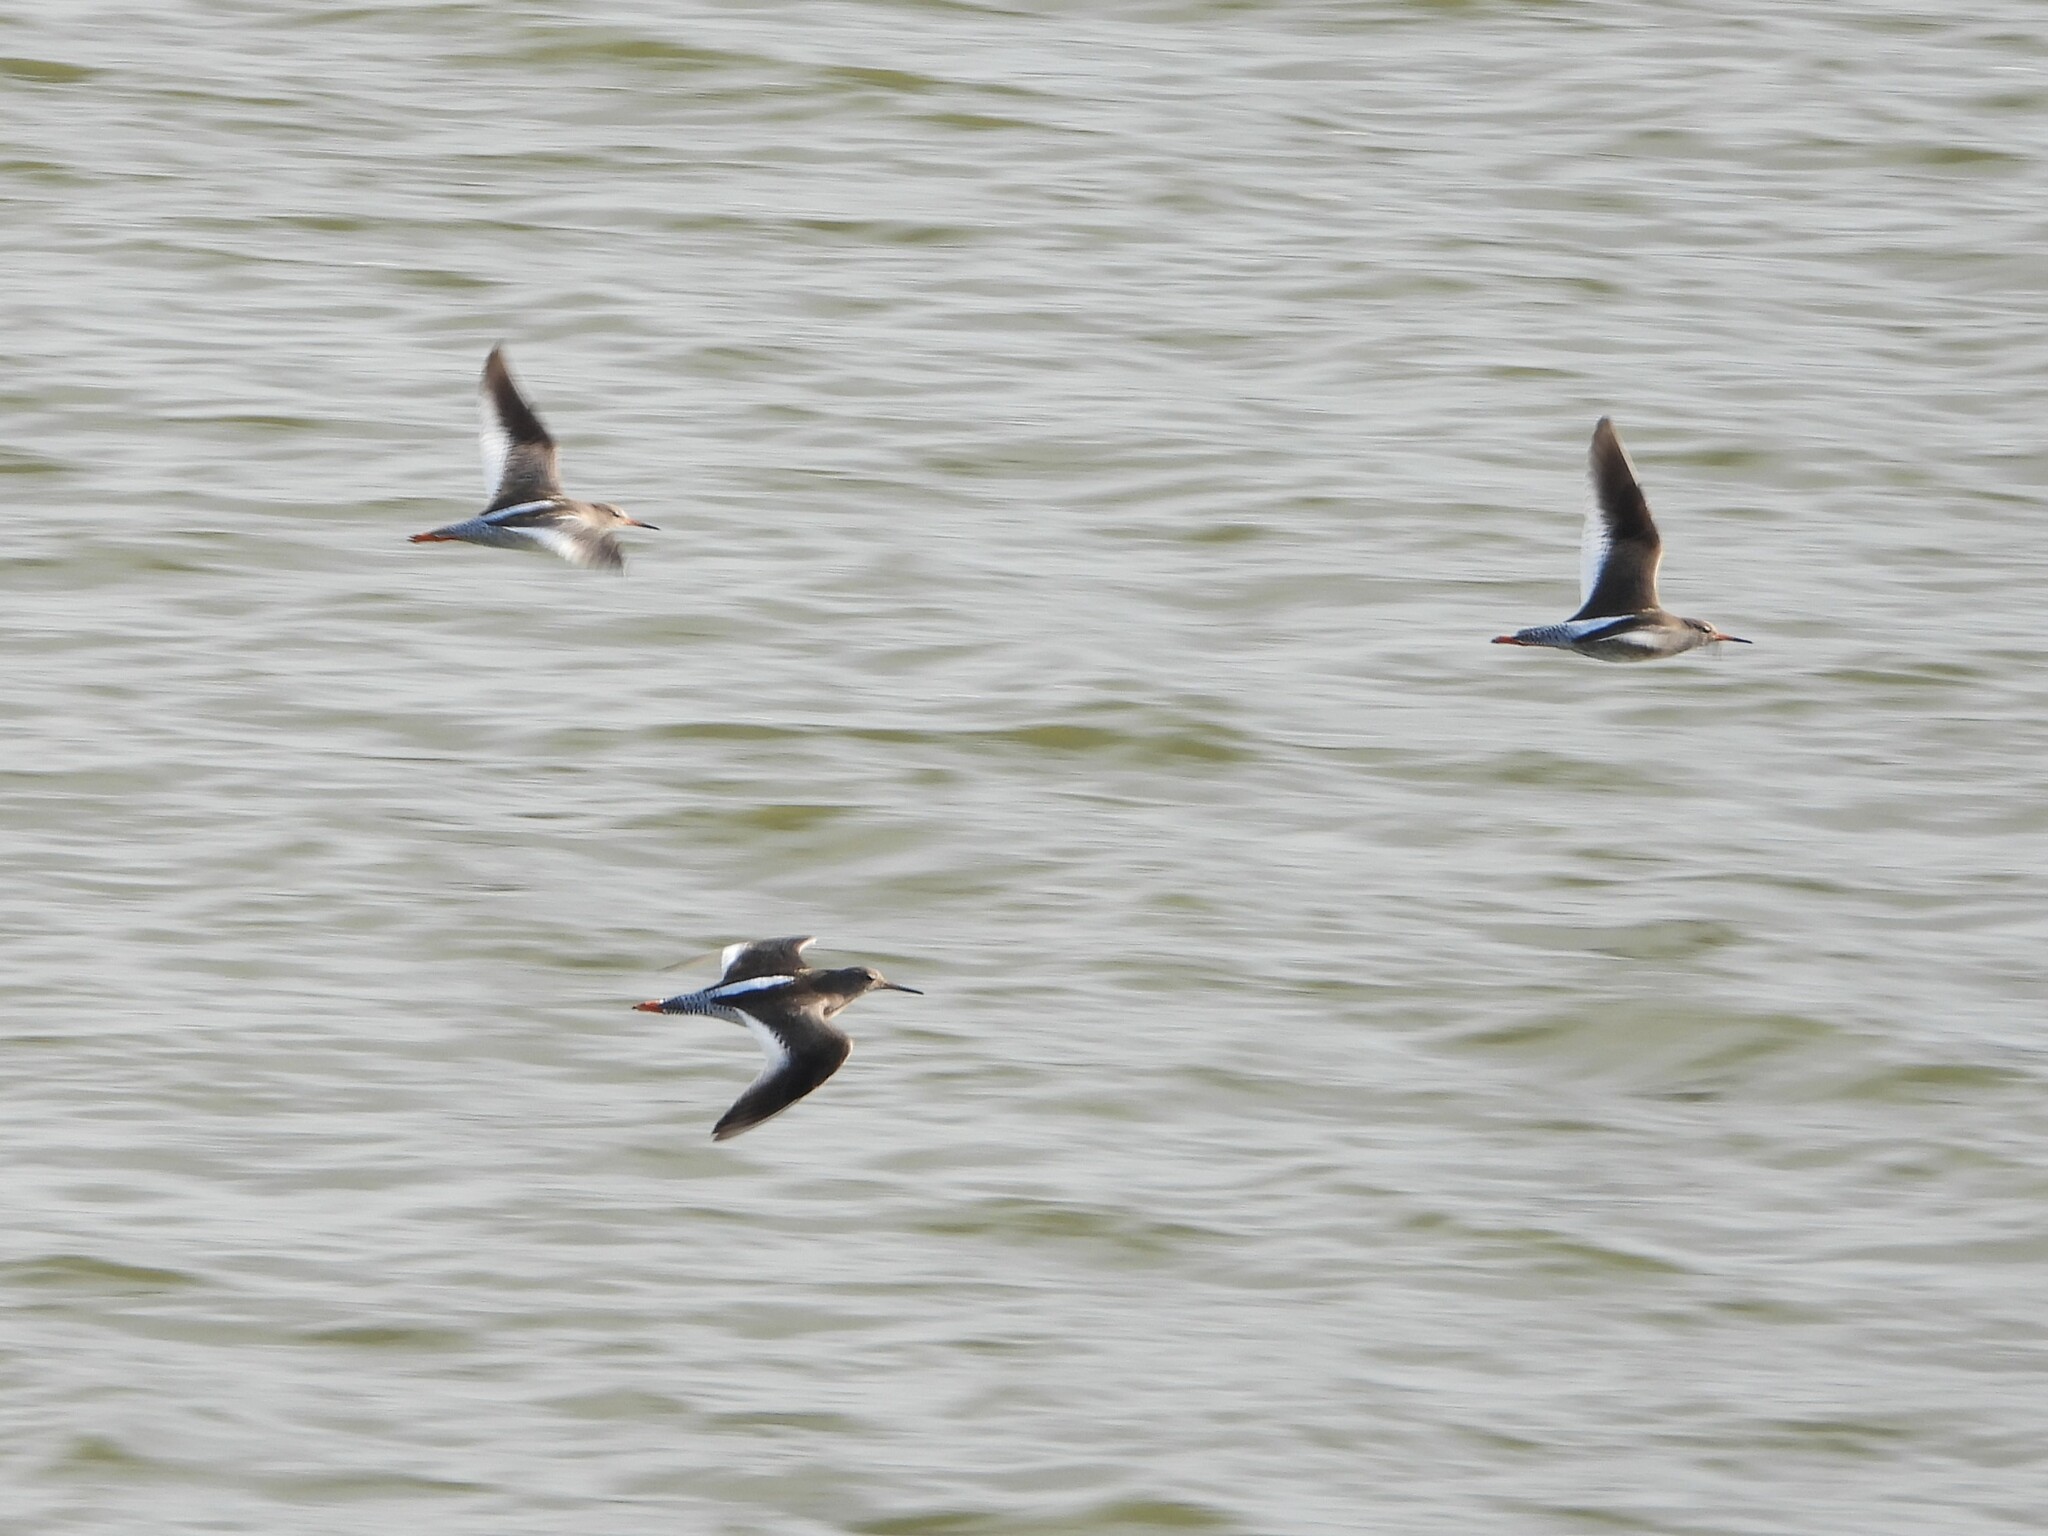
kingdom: Animalia
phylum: Chordata
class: Aves
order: Charadriiformes
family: Scolopacidae
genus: Tringa
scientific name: Tringa totanus
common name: Common redshank
